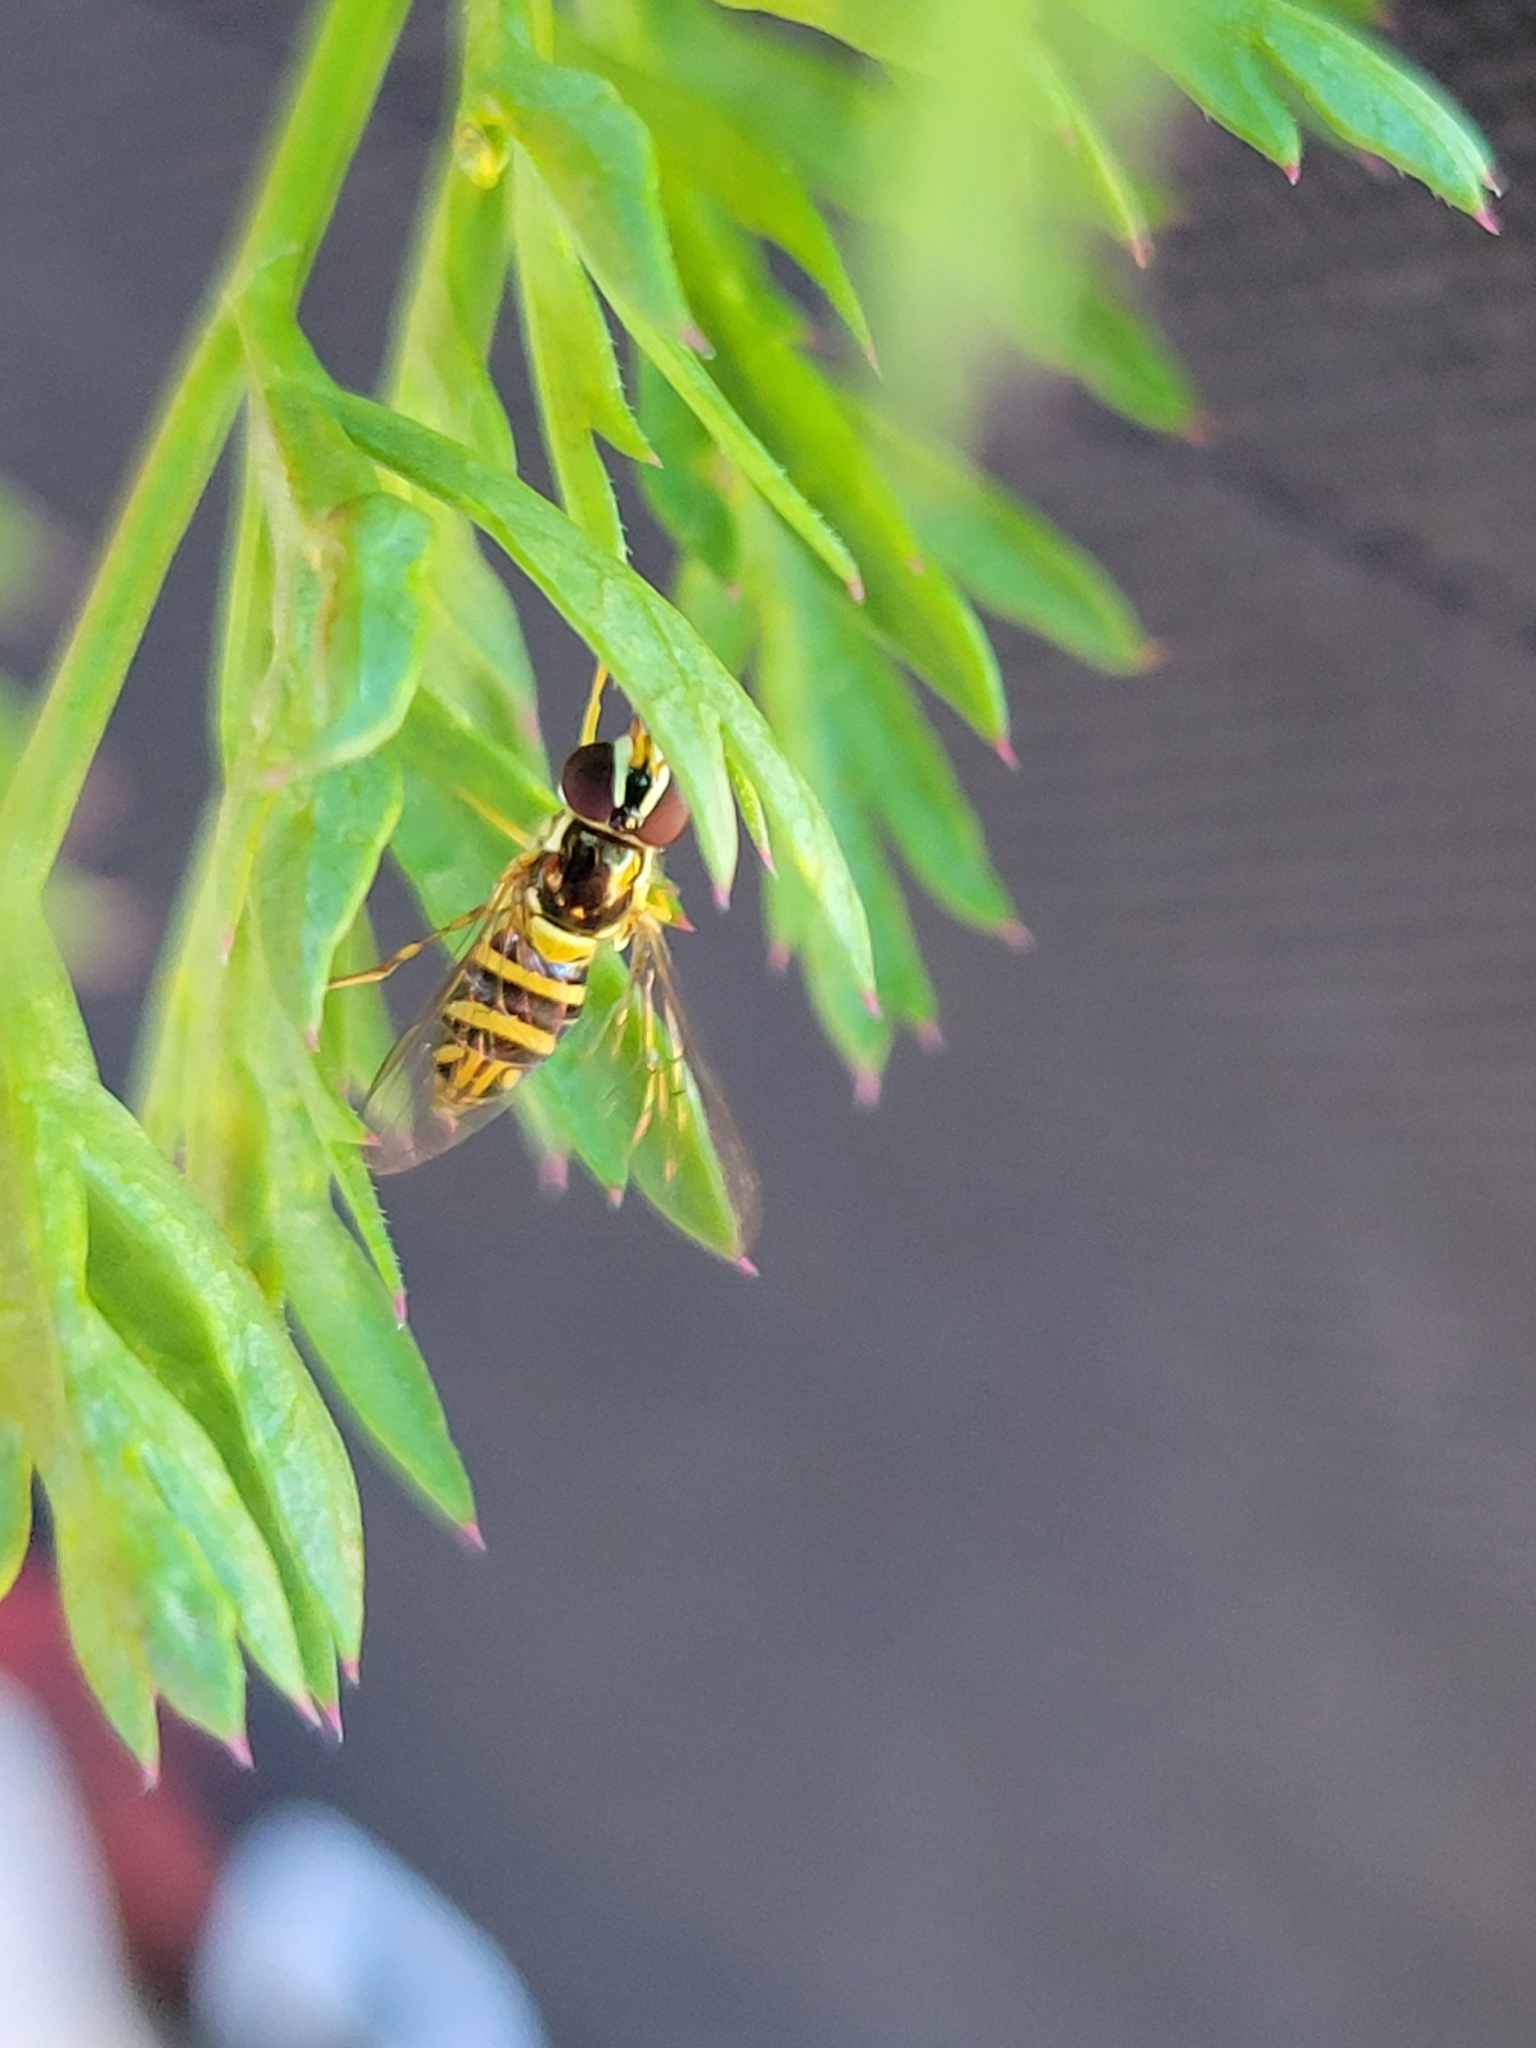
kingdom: Animalia
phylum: Arthropoda
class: Insecta
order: Diptera
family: Syrphidae
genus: Allograpta
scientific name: Allograpta obliqua
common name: Common oblique syrphid
